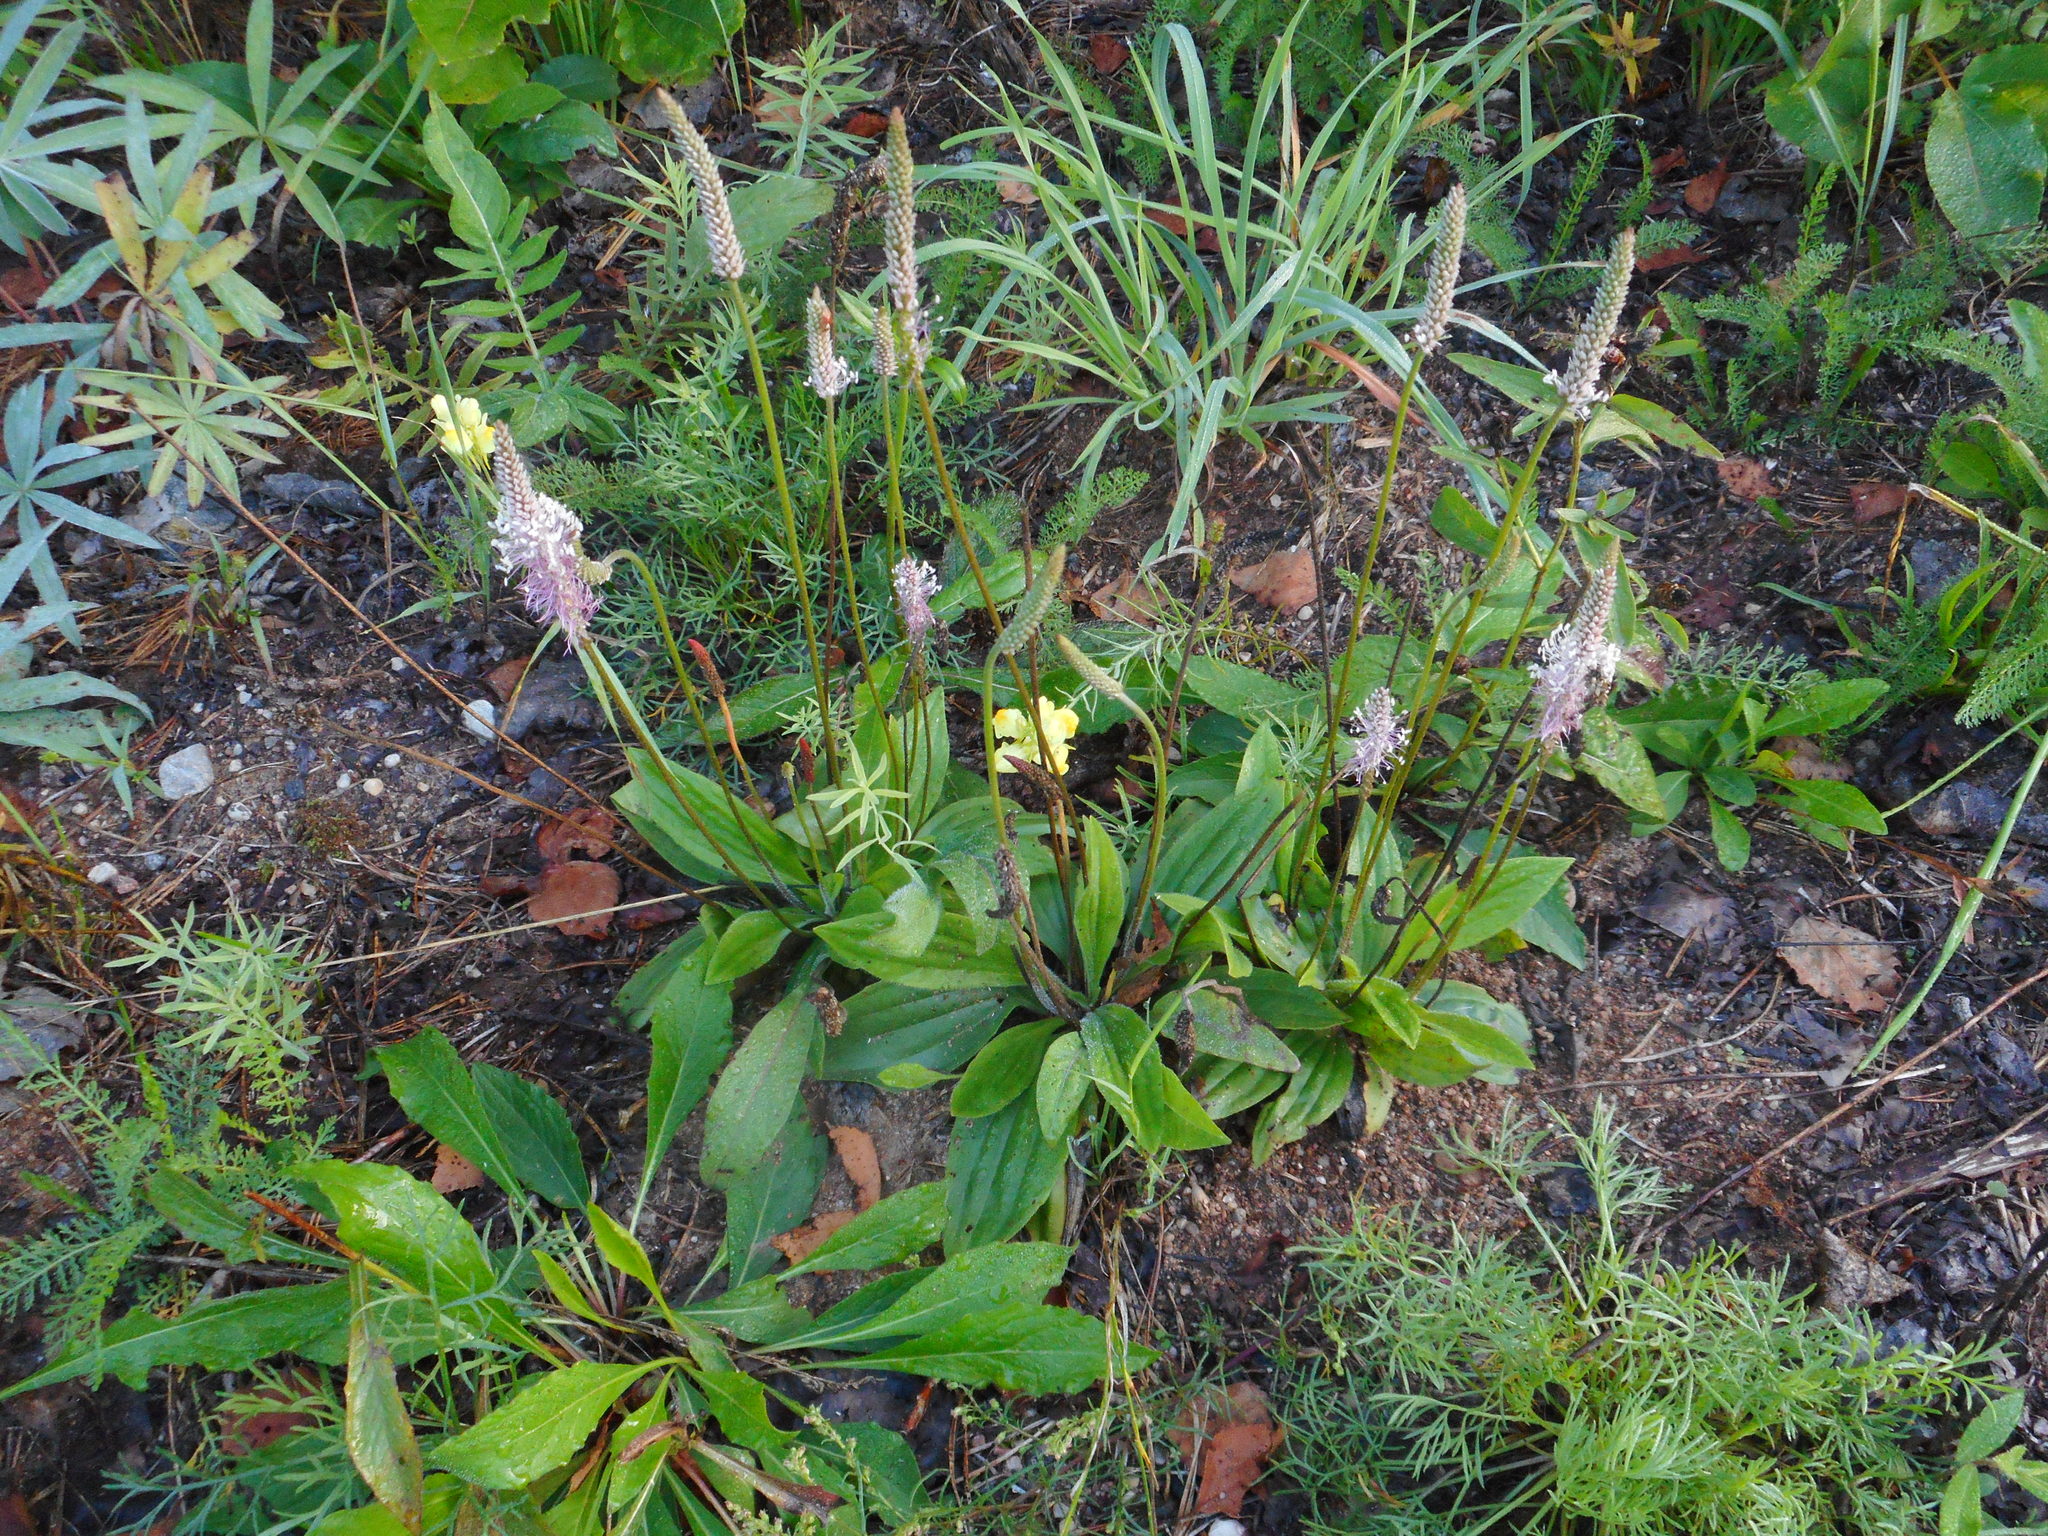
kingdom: Plantae
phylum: Tracheophyta
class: Magnoliopsida
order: Lamiales
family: Plantaginaceae
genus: Plantago
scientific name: Plantago media
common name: Hoary plantain
